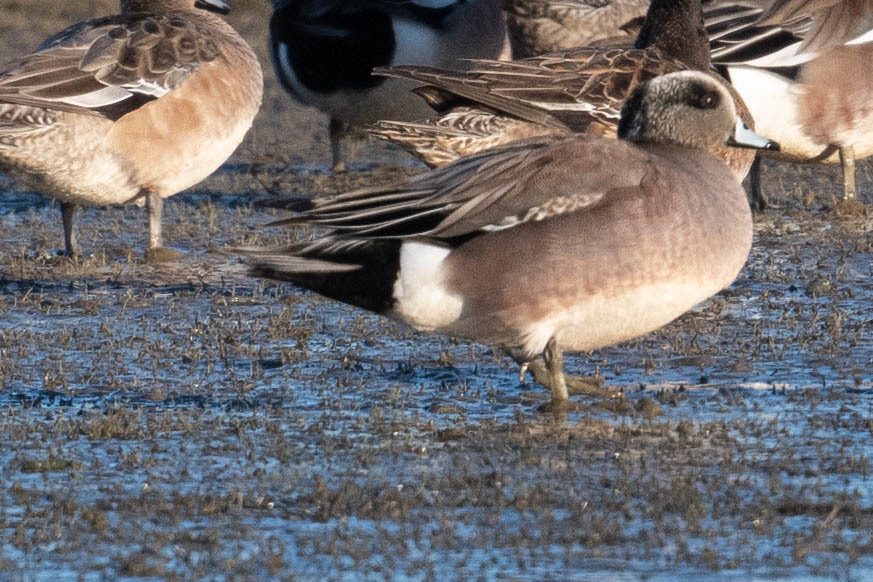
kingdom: Animalia
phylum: Chordata
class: Aves
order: Anseriformes
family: Anatidae
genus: Mareca
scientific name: Mareca americana
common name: American wigeon
